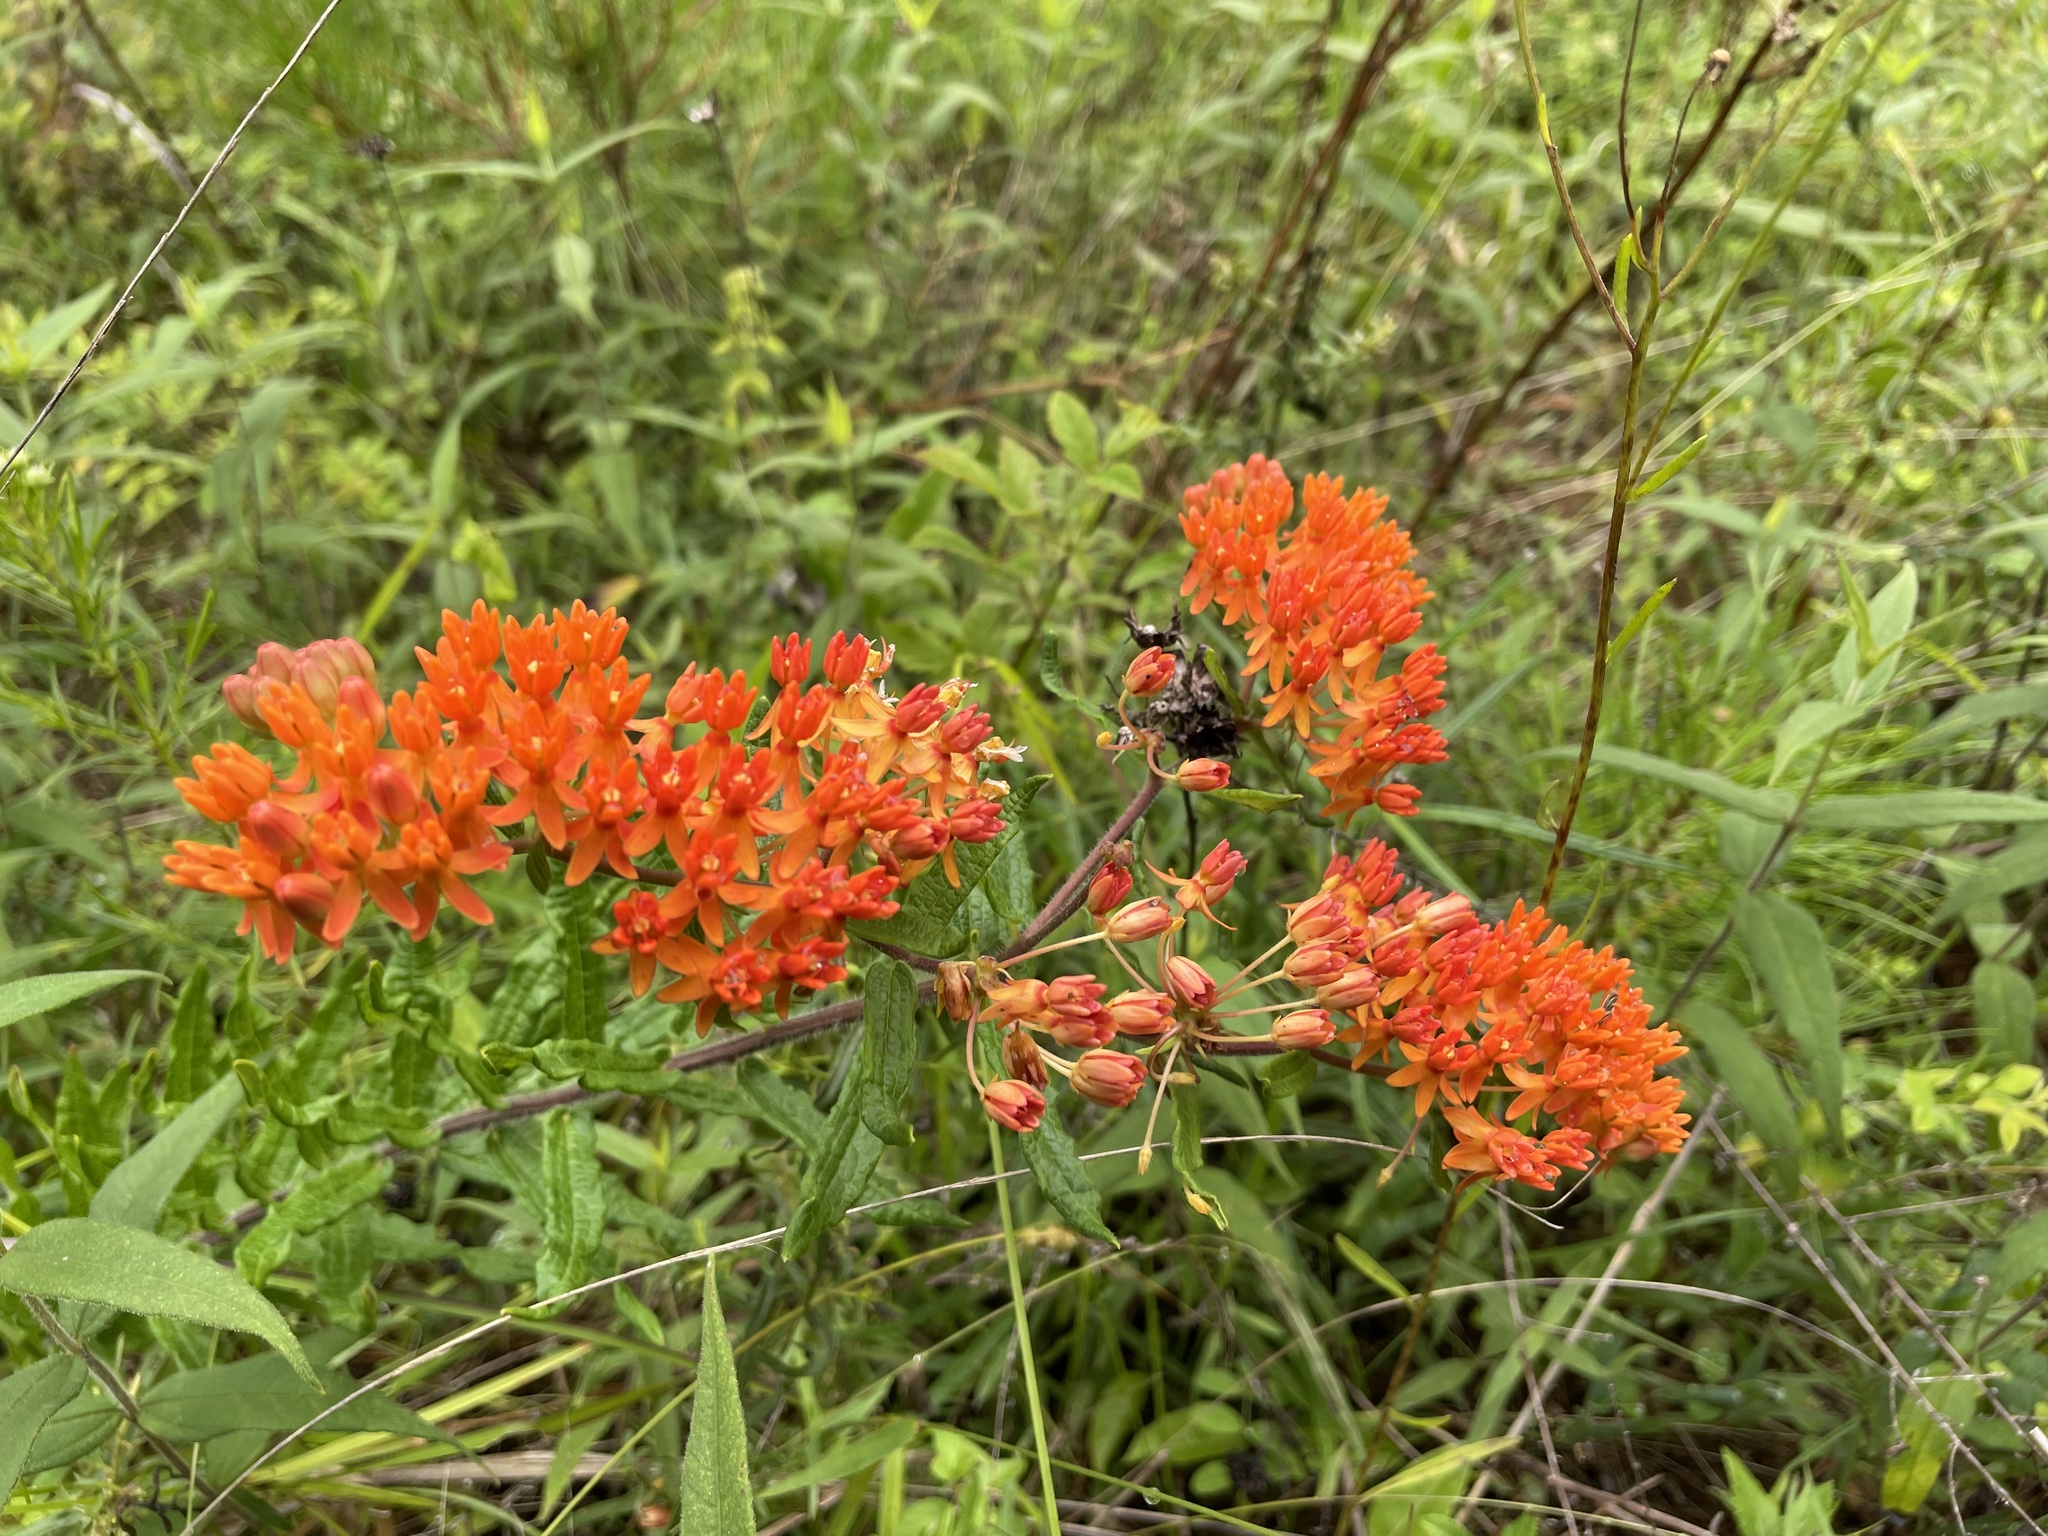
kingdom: Plantae
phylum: Tracheophyta
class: Magnoliopsida
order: Gentianales
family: Apocynaceae
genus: Asclepias
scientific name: Asclepias tuberosa
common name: Butterfly milkweed
